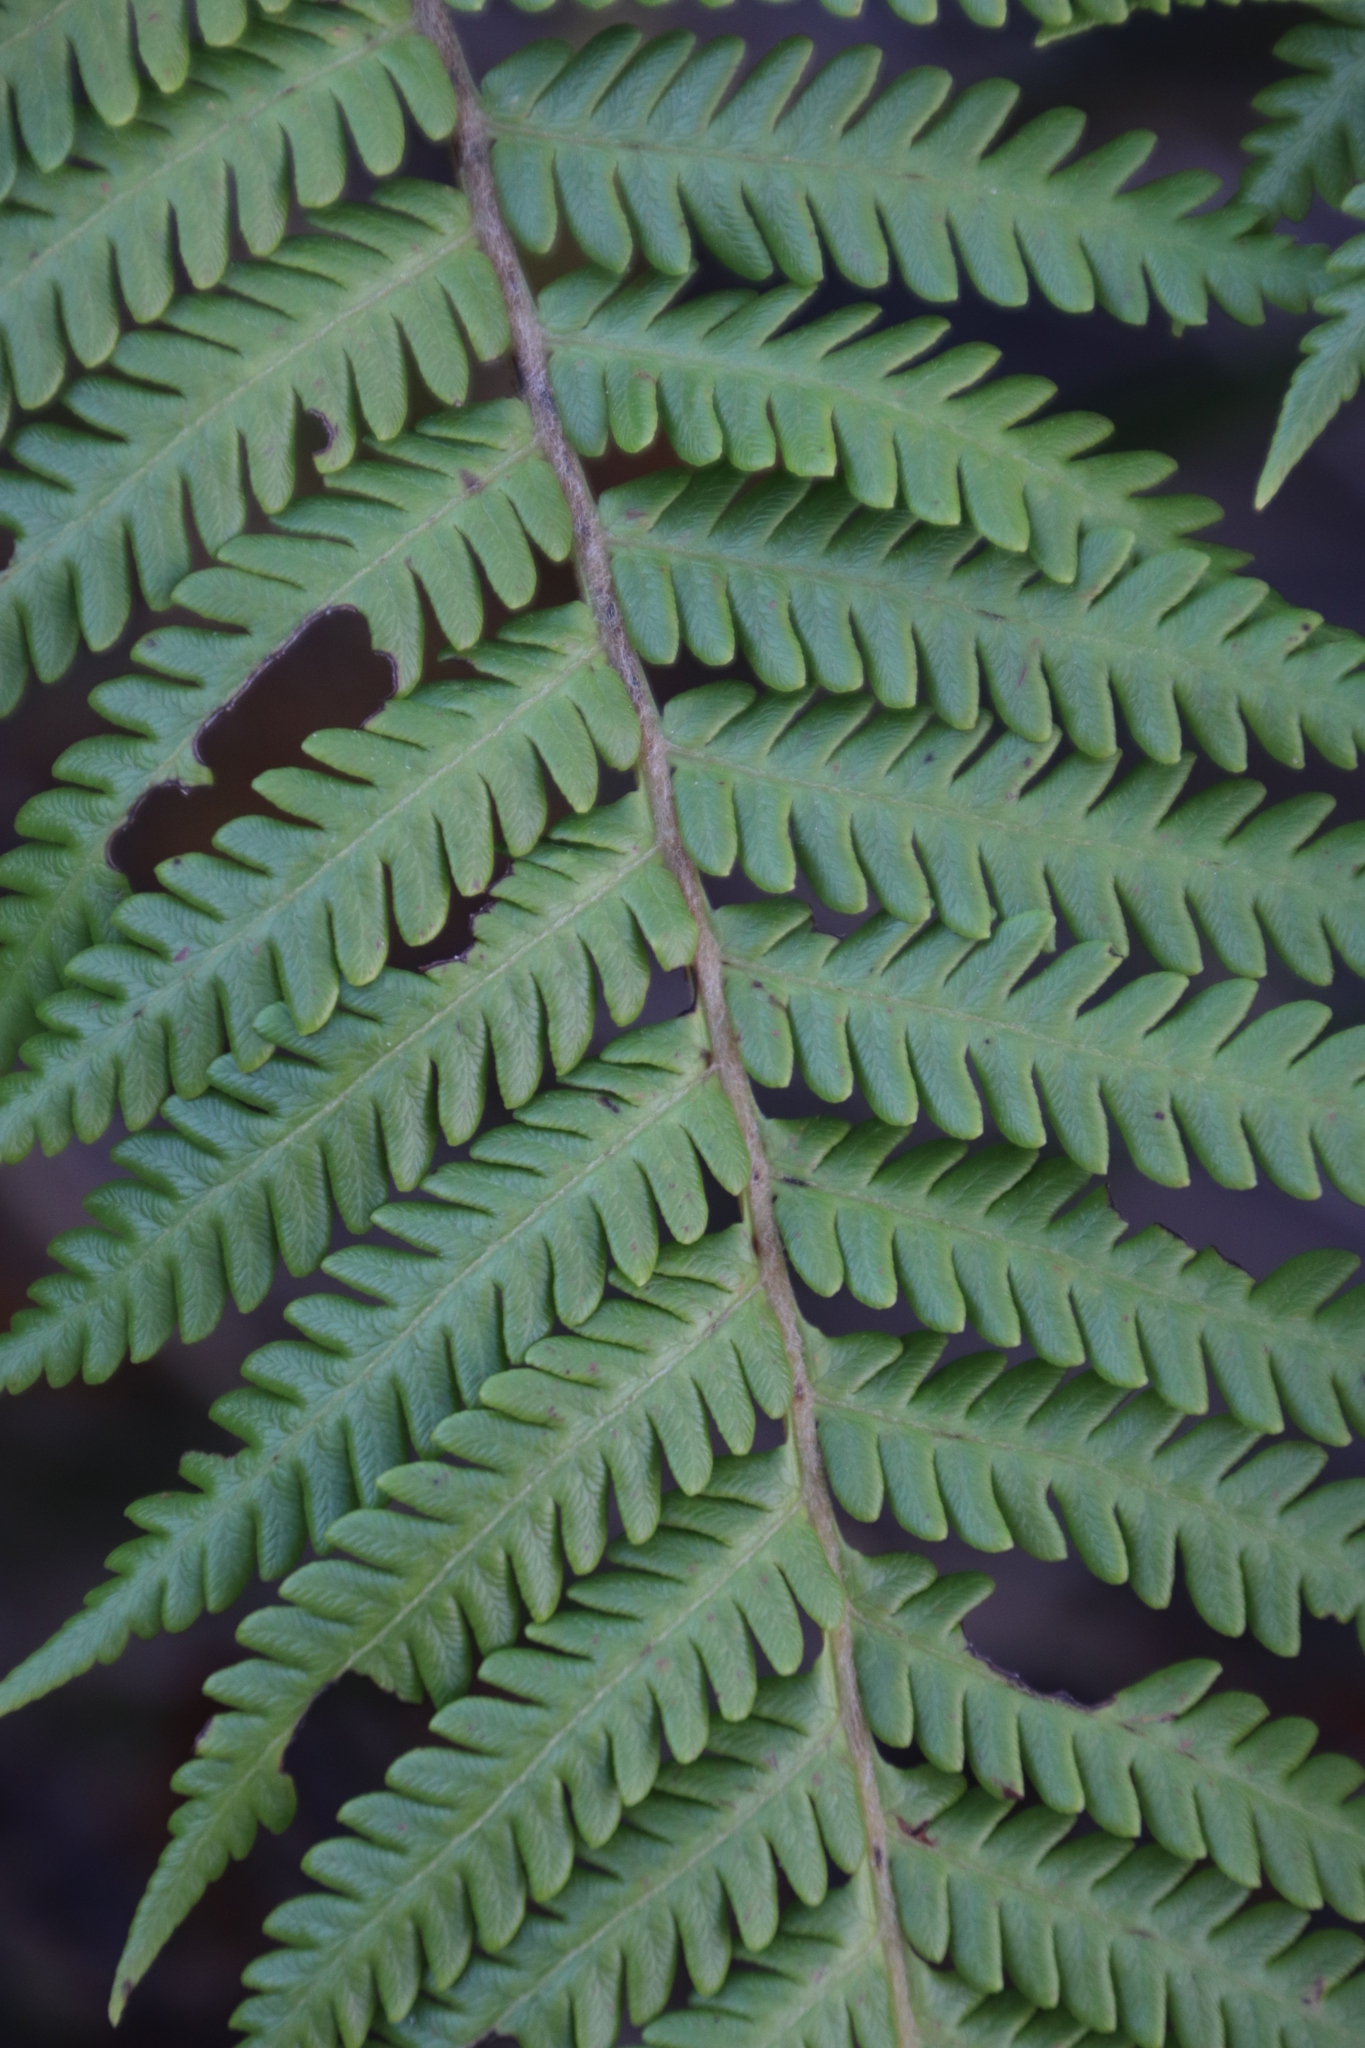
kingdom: Plantae
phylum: Tracheophyta
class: Polypodiopsida
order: Cyatheales
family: Cyatheaceae
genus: Sphaeropteris
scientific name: Sphaeropteris cooperi
